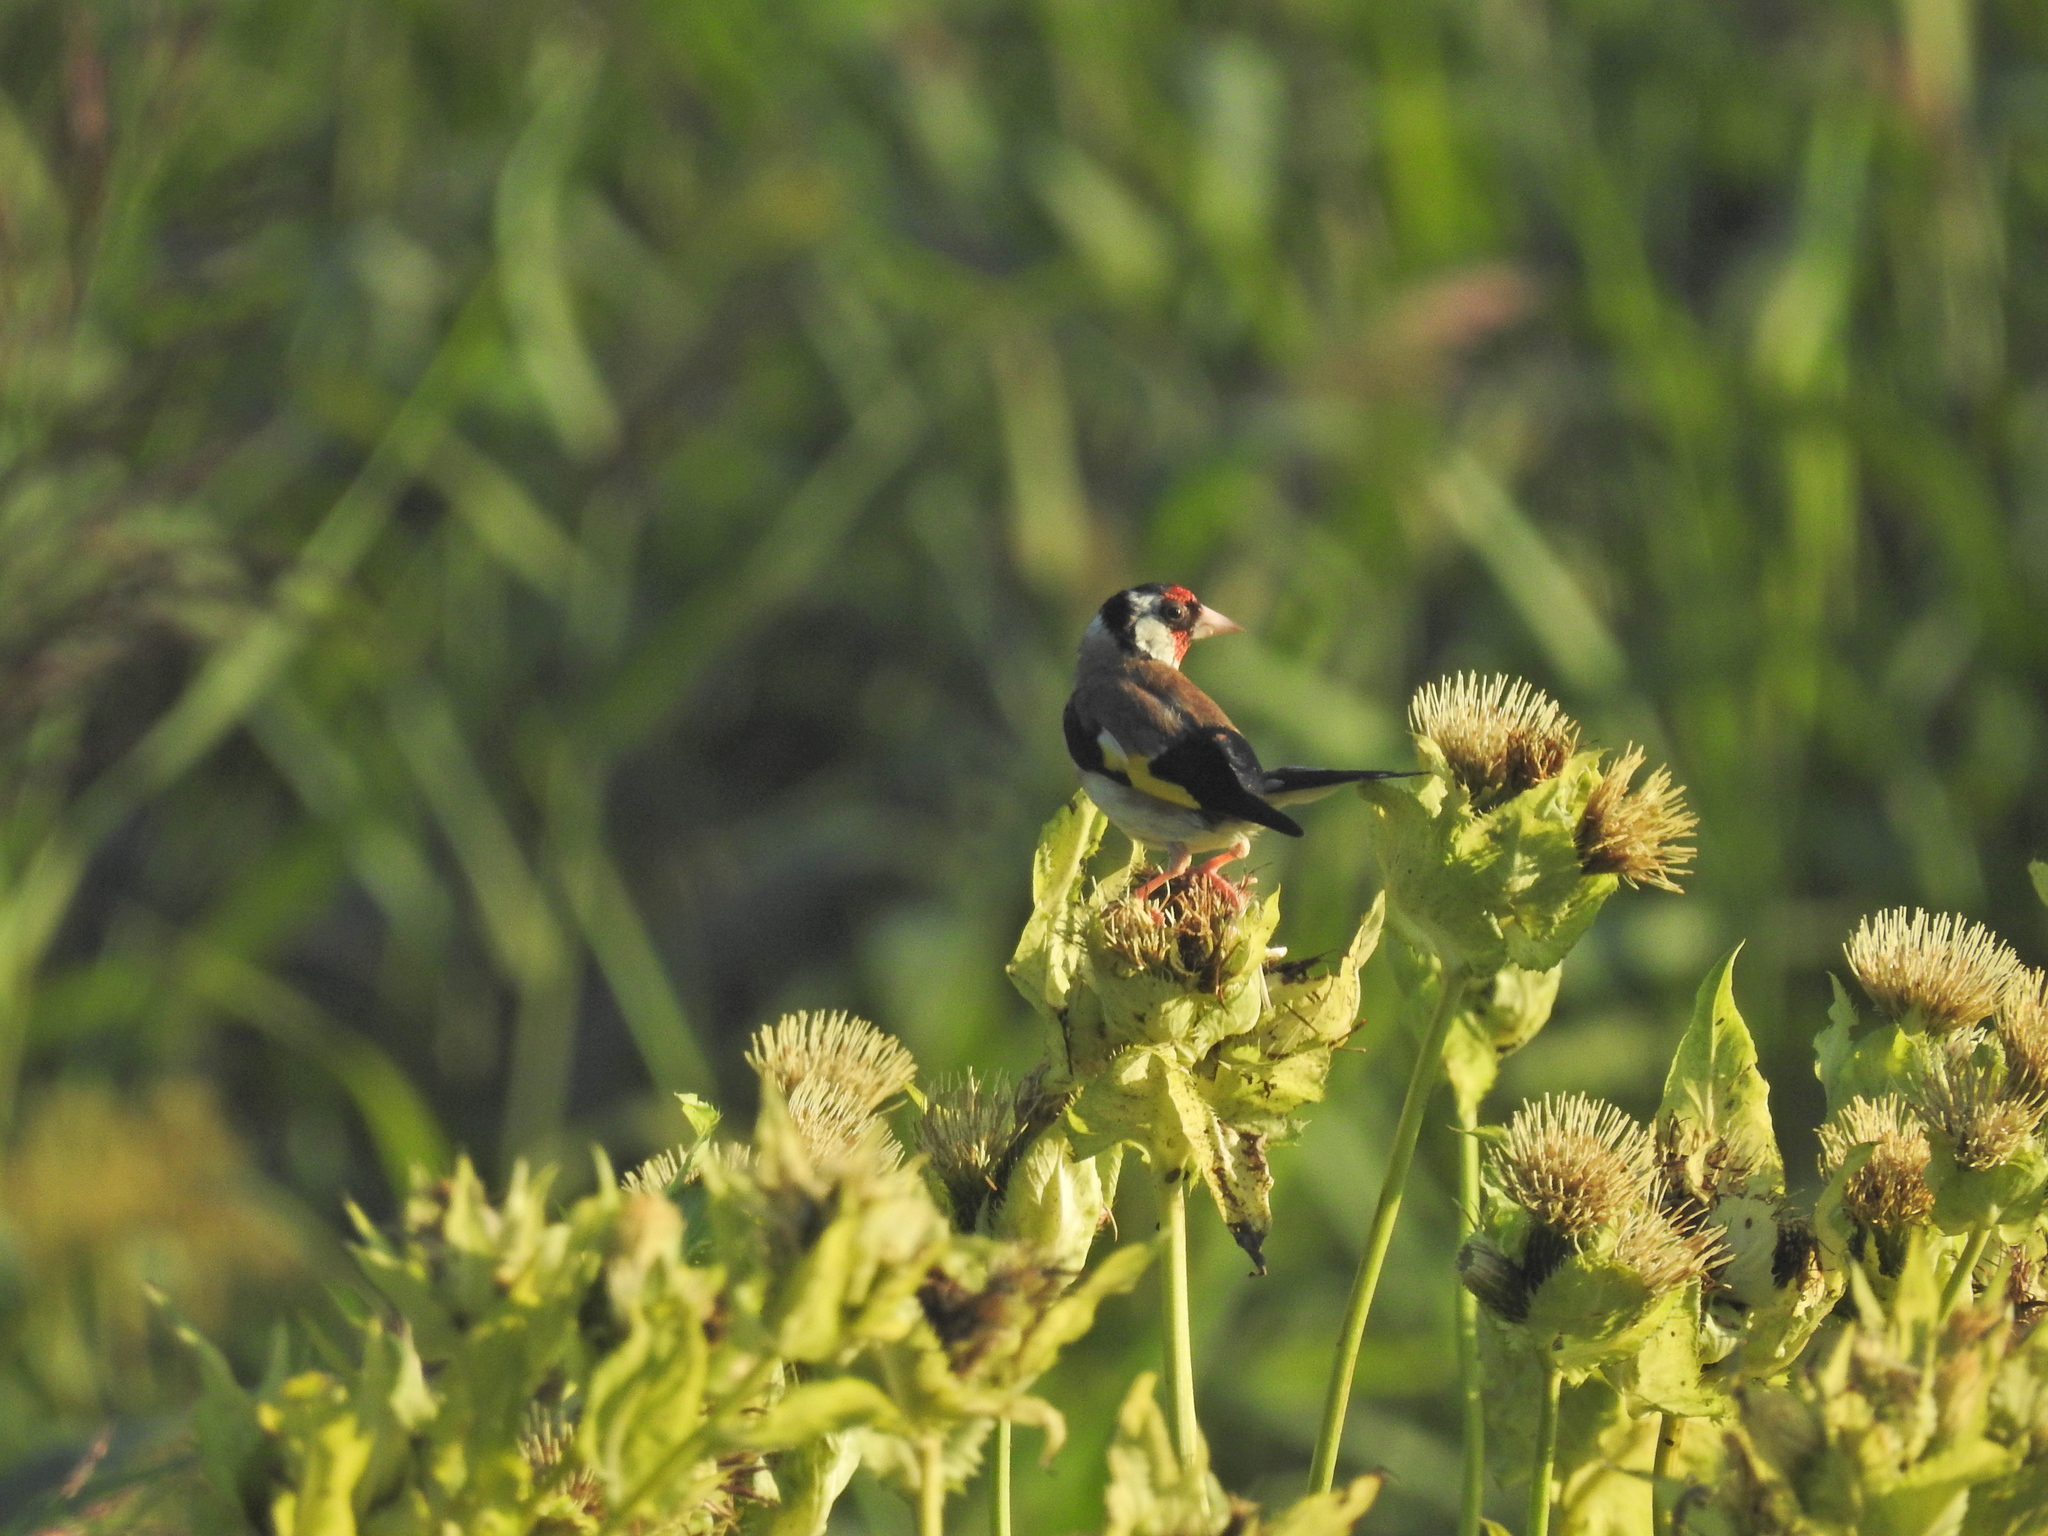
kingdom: Animalia
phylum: Chordata
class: Aves
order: Passeriformes
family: Fringillidae
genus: Carduelis
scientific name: Carduelis carduelis
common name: European goldfinch
